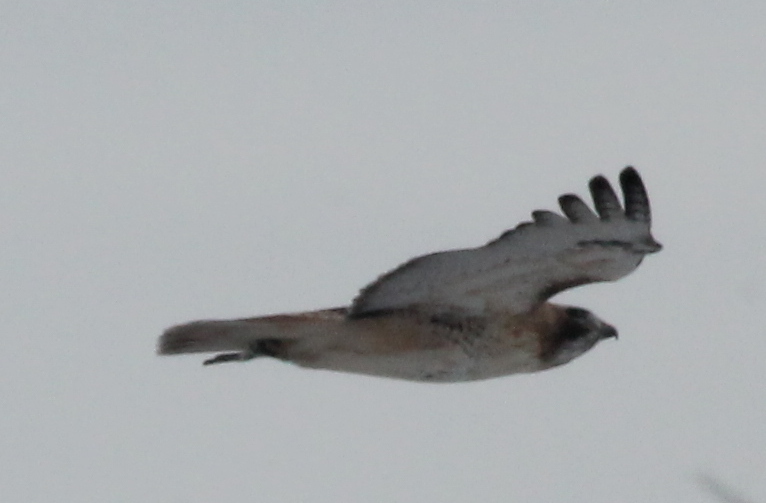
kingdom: Animalia
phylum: Chordata
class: Aves
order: Accipitriformes
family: Accipitridae
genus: Buteo
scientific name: Buteo jamaicensis
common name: Red-tailed hawk
